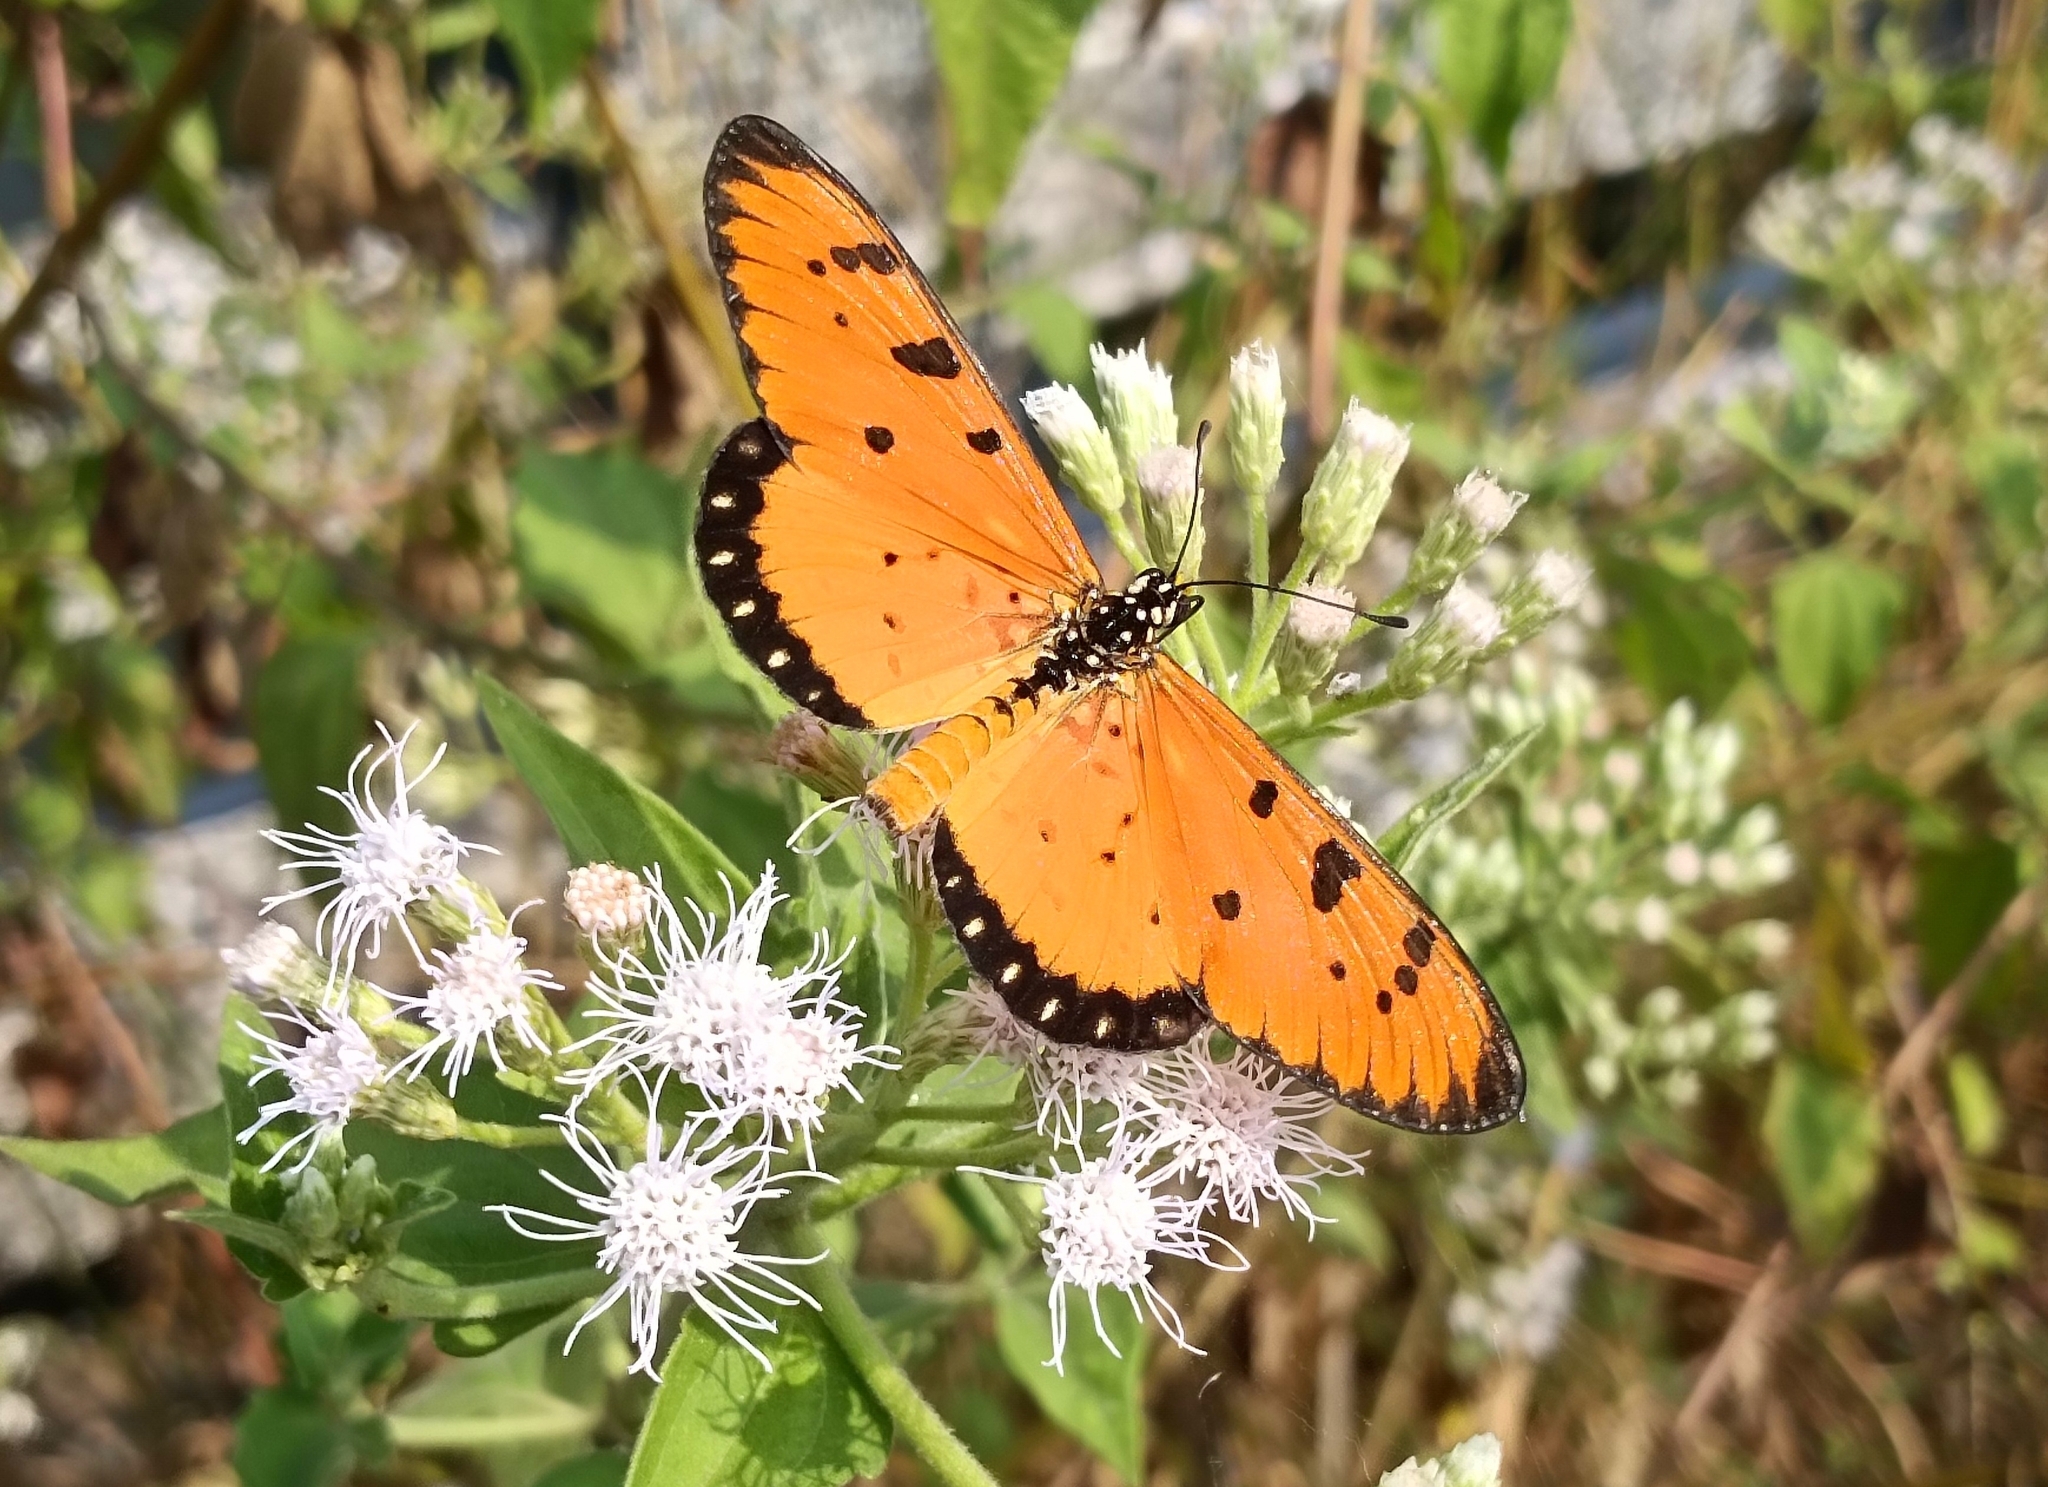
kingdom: Animalia
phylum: Arthropoda
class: Insecta
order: Lepidoptera
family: Nymphalidae
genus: Acraea
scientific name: Acraea terpsicore
